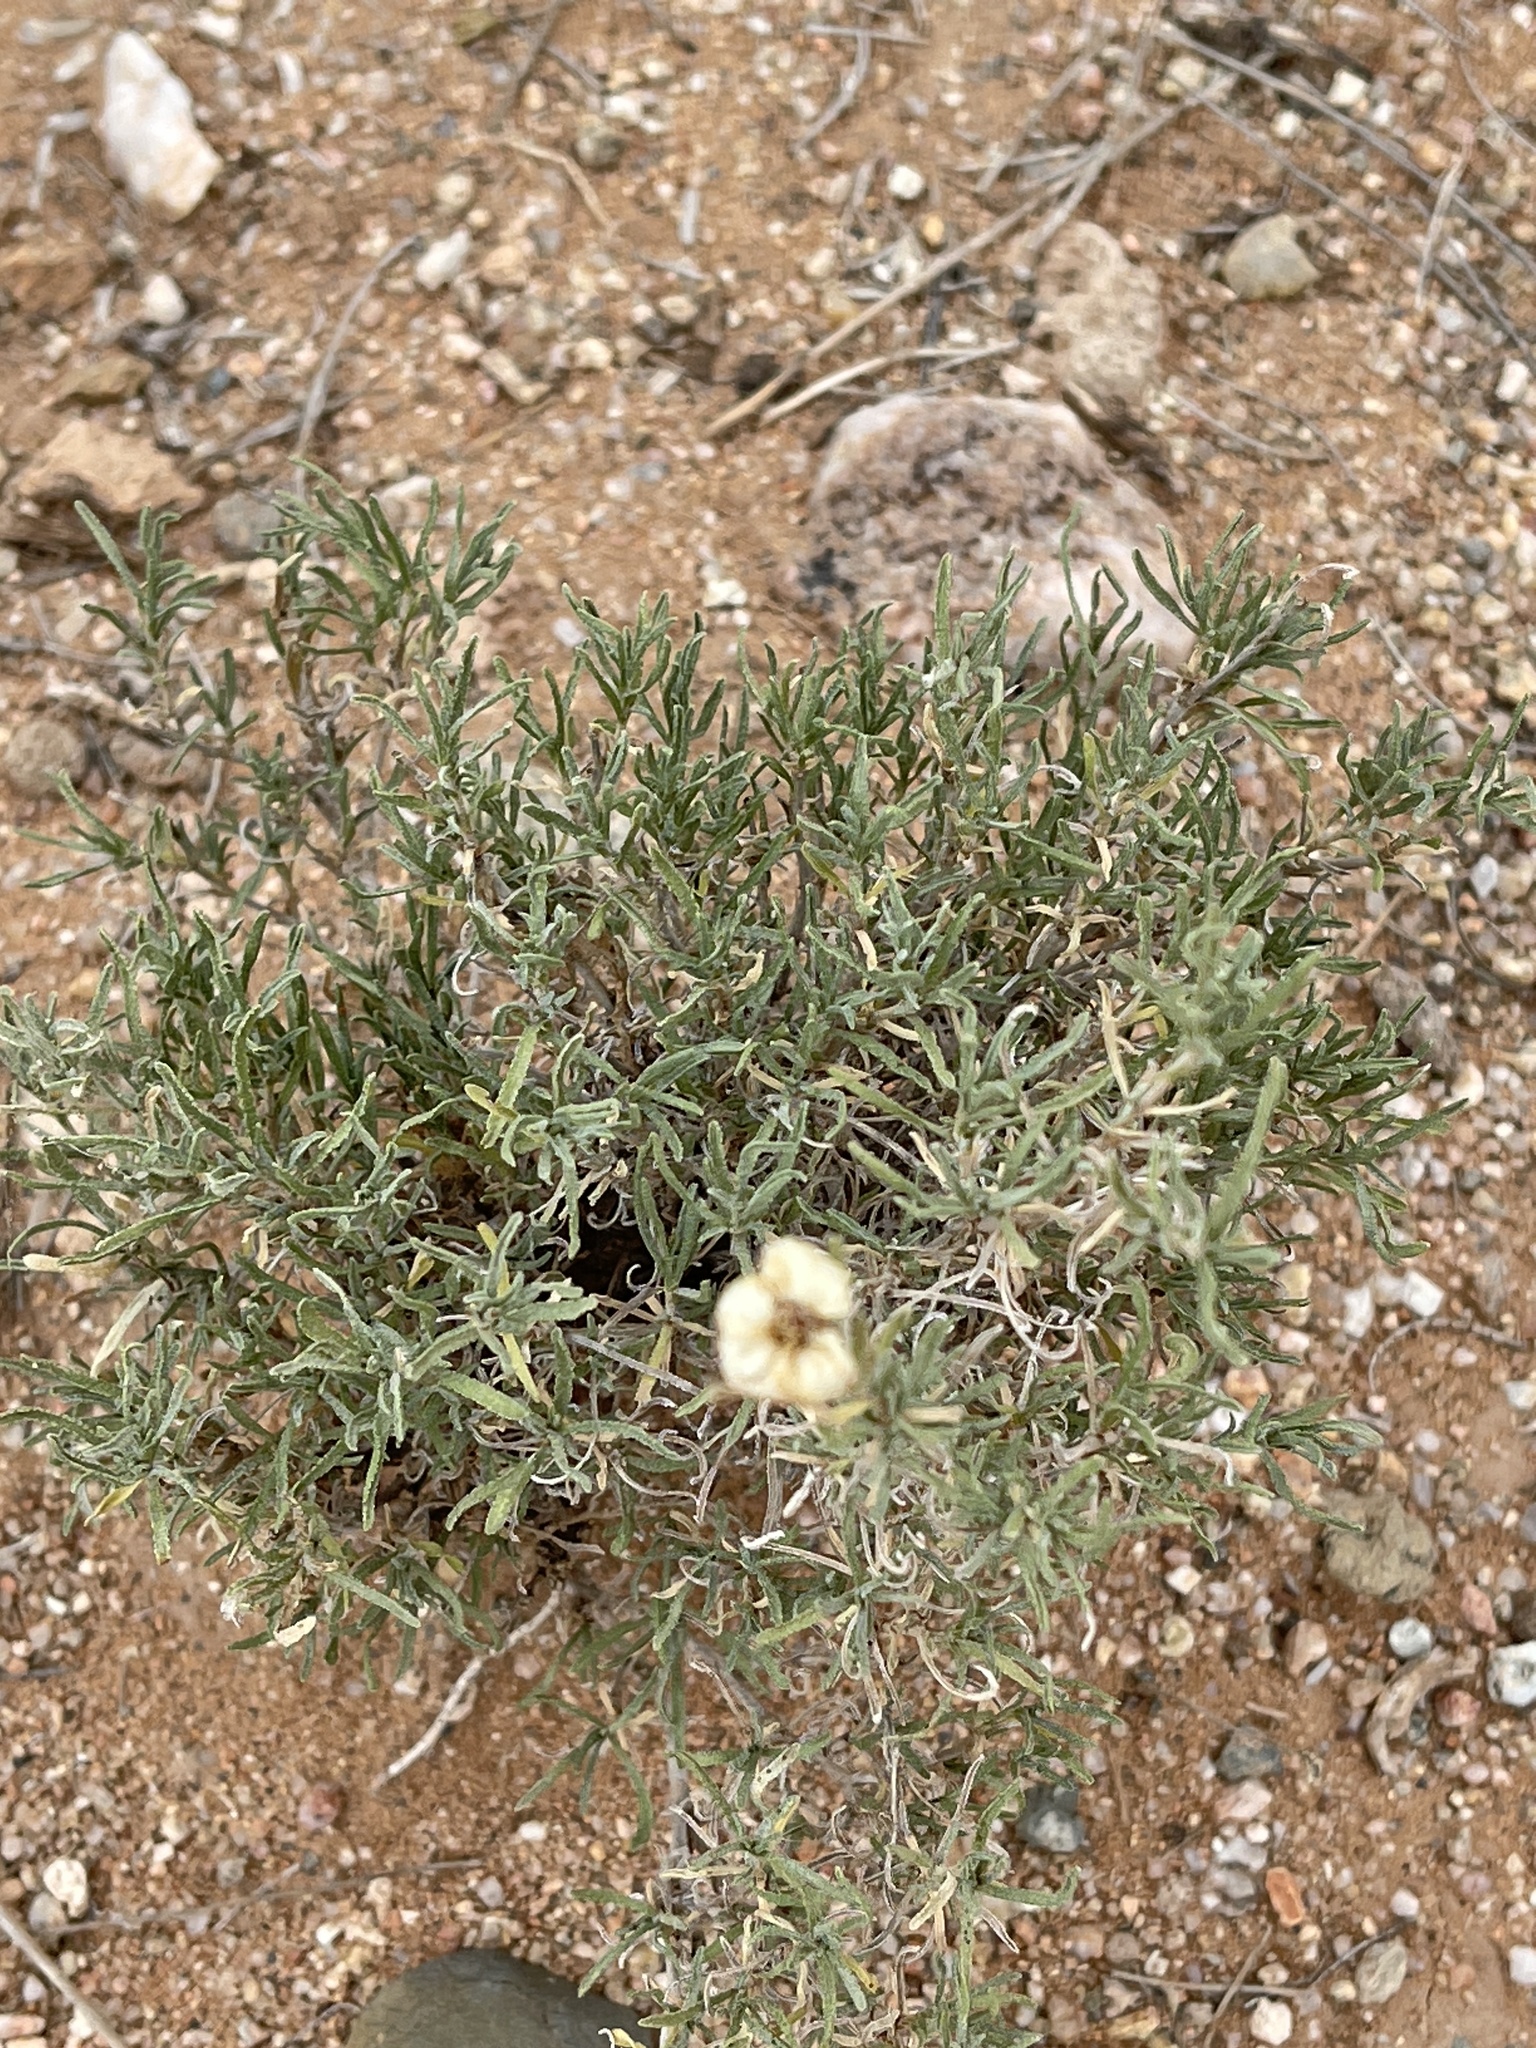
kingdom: Plantae
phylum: Tracheophyta
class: Magnoliopsida
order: Asterales
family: Asteraceae
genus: Zinnia
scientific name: Zinnia acerosa
